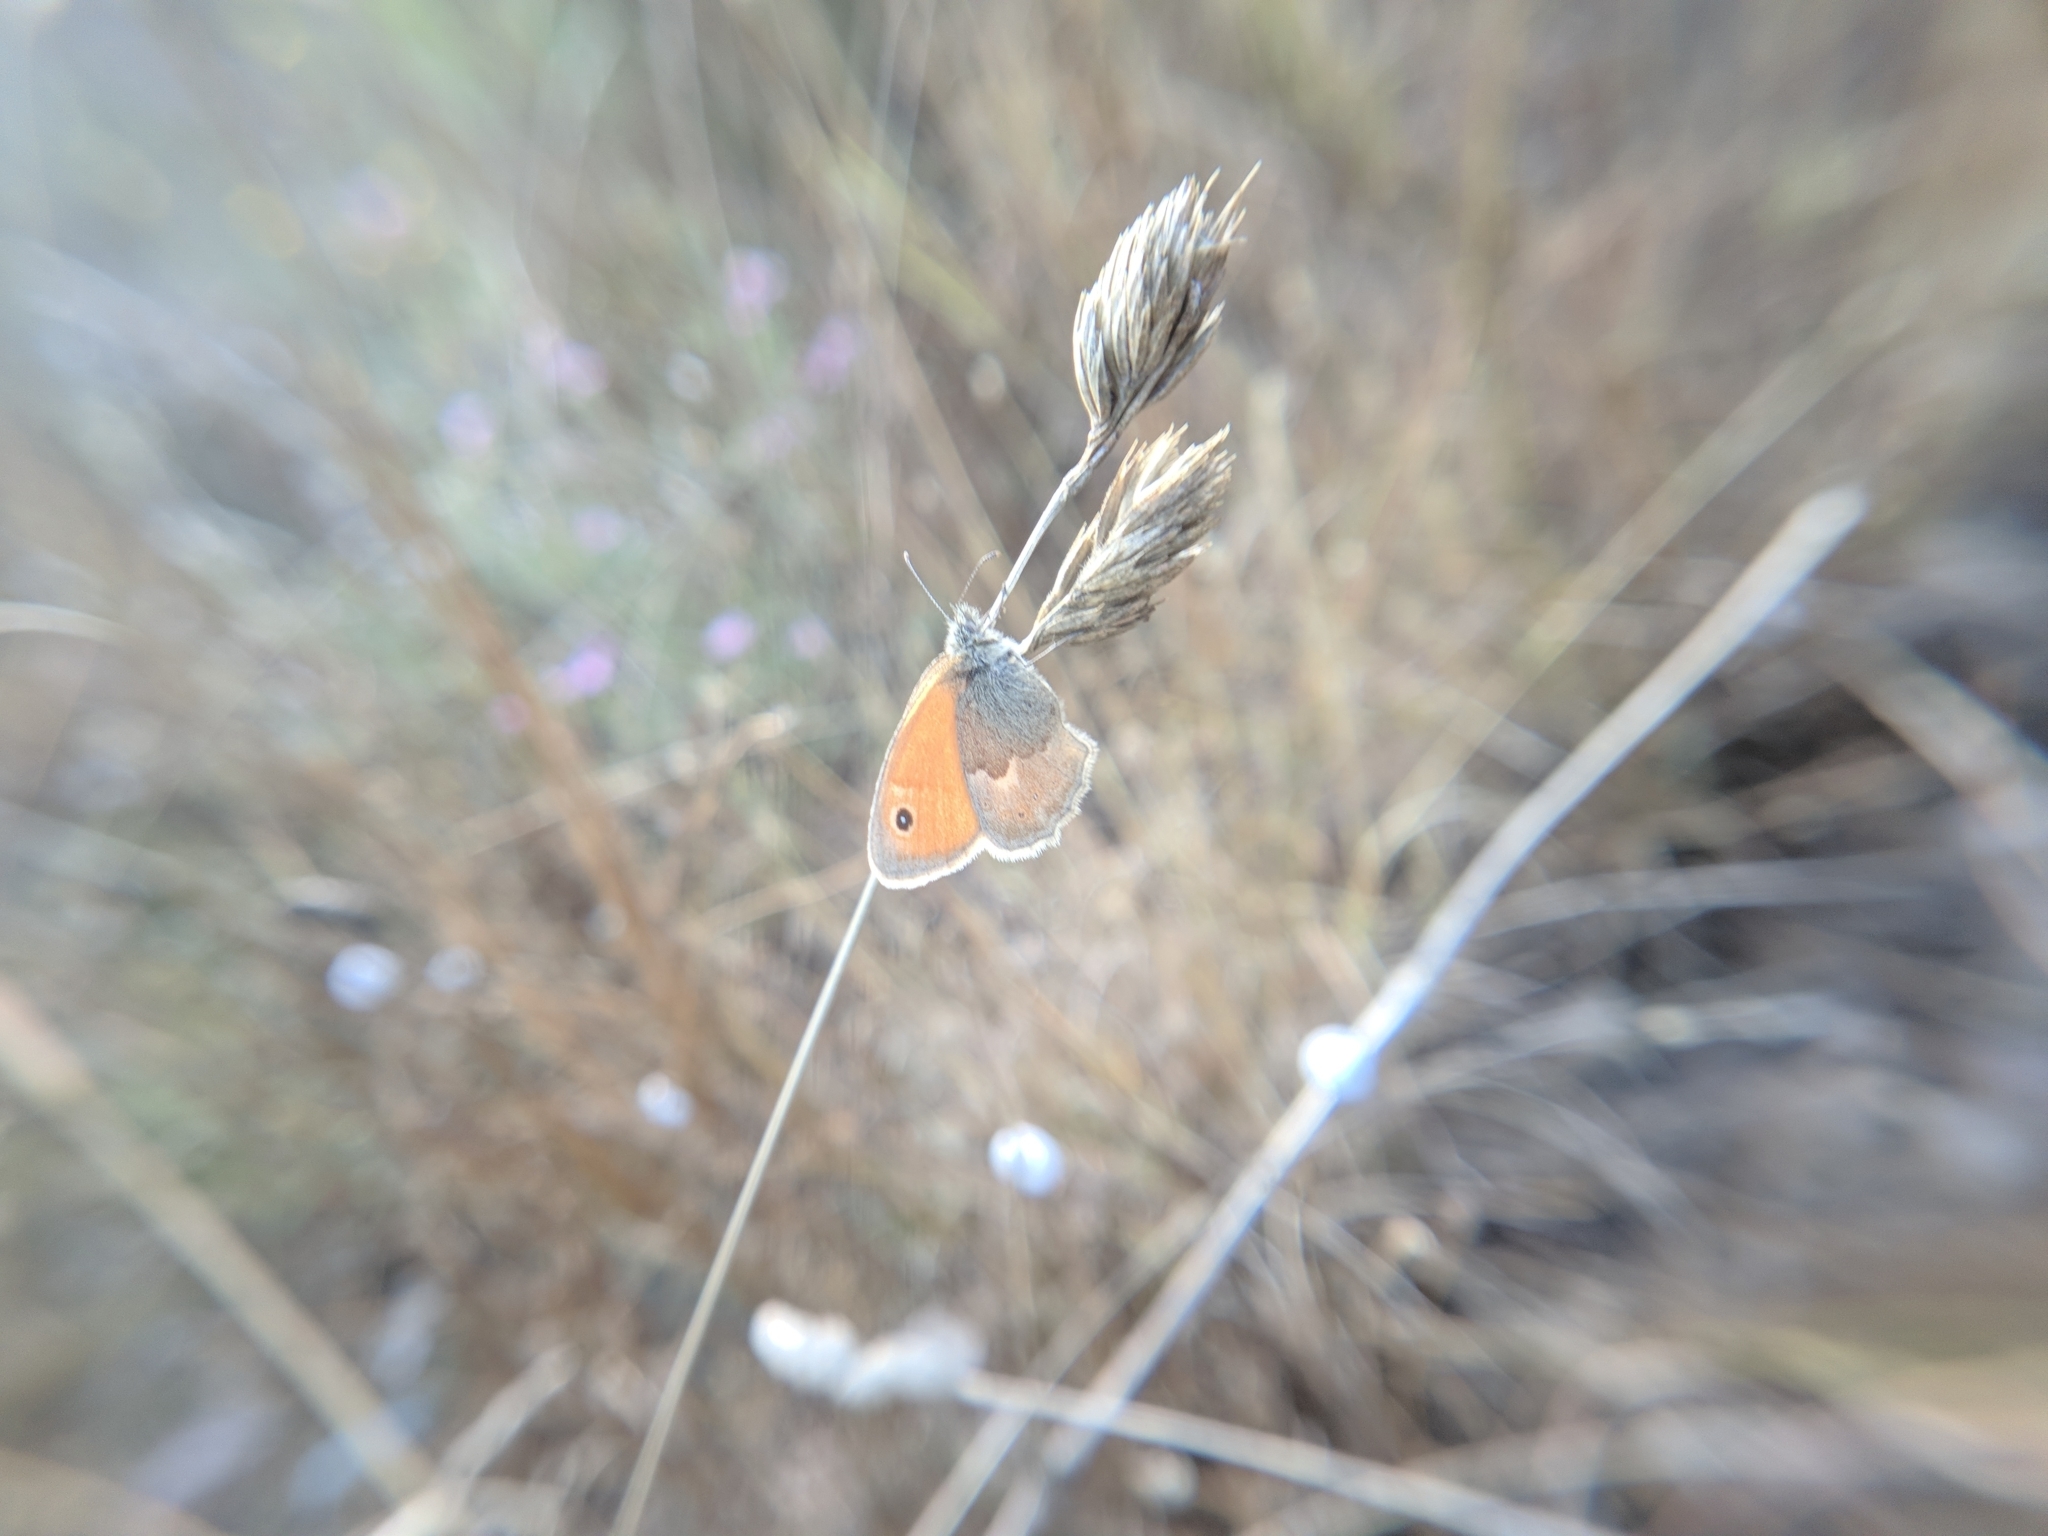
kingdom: Animalia
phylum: Arthropoda
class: Insecta
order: Lepidoptera
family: Nymphalidae
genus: Coenonympha
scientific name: Coenonympha pamphilus
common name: Small heath
